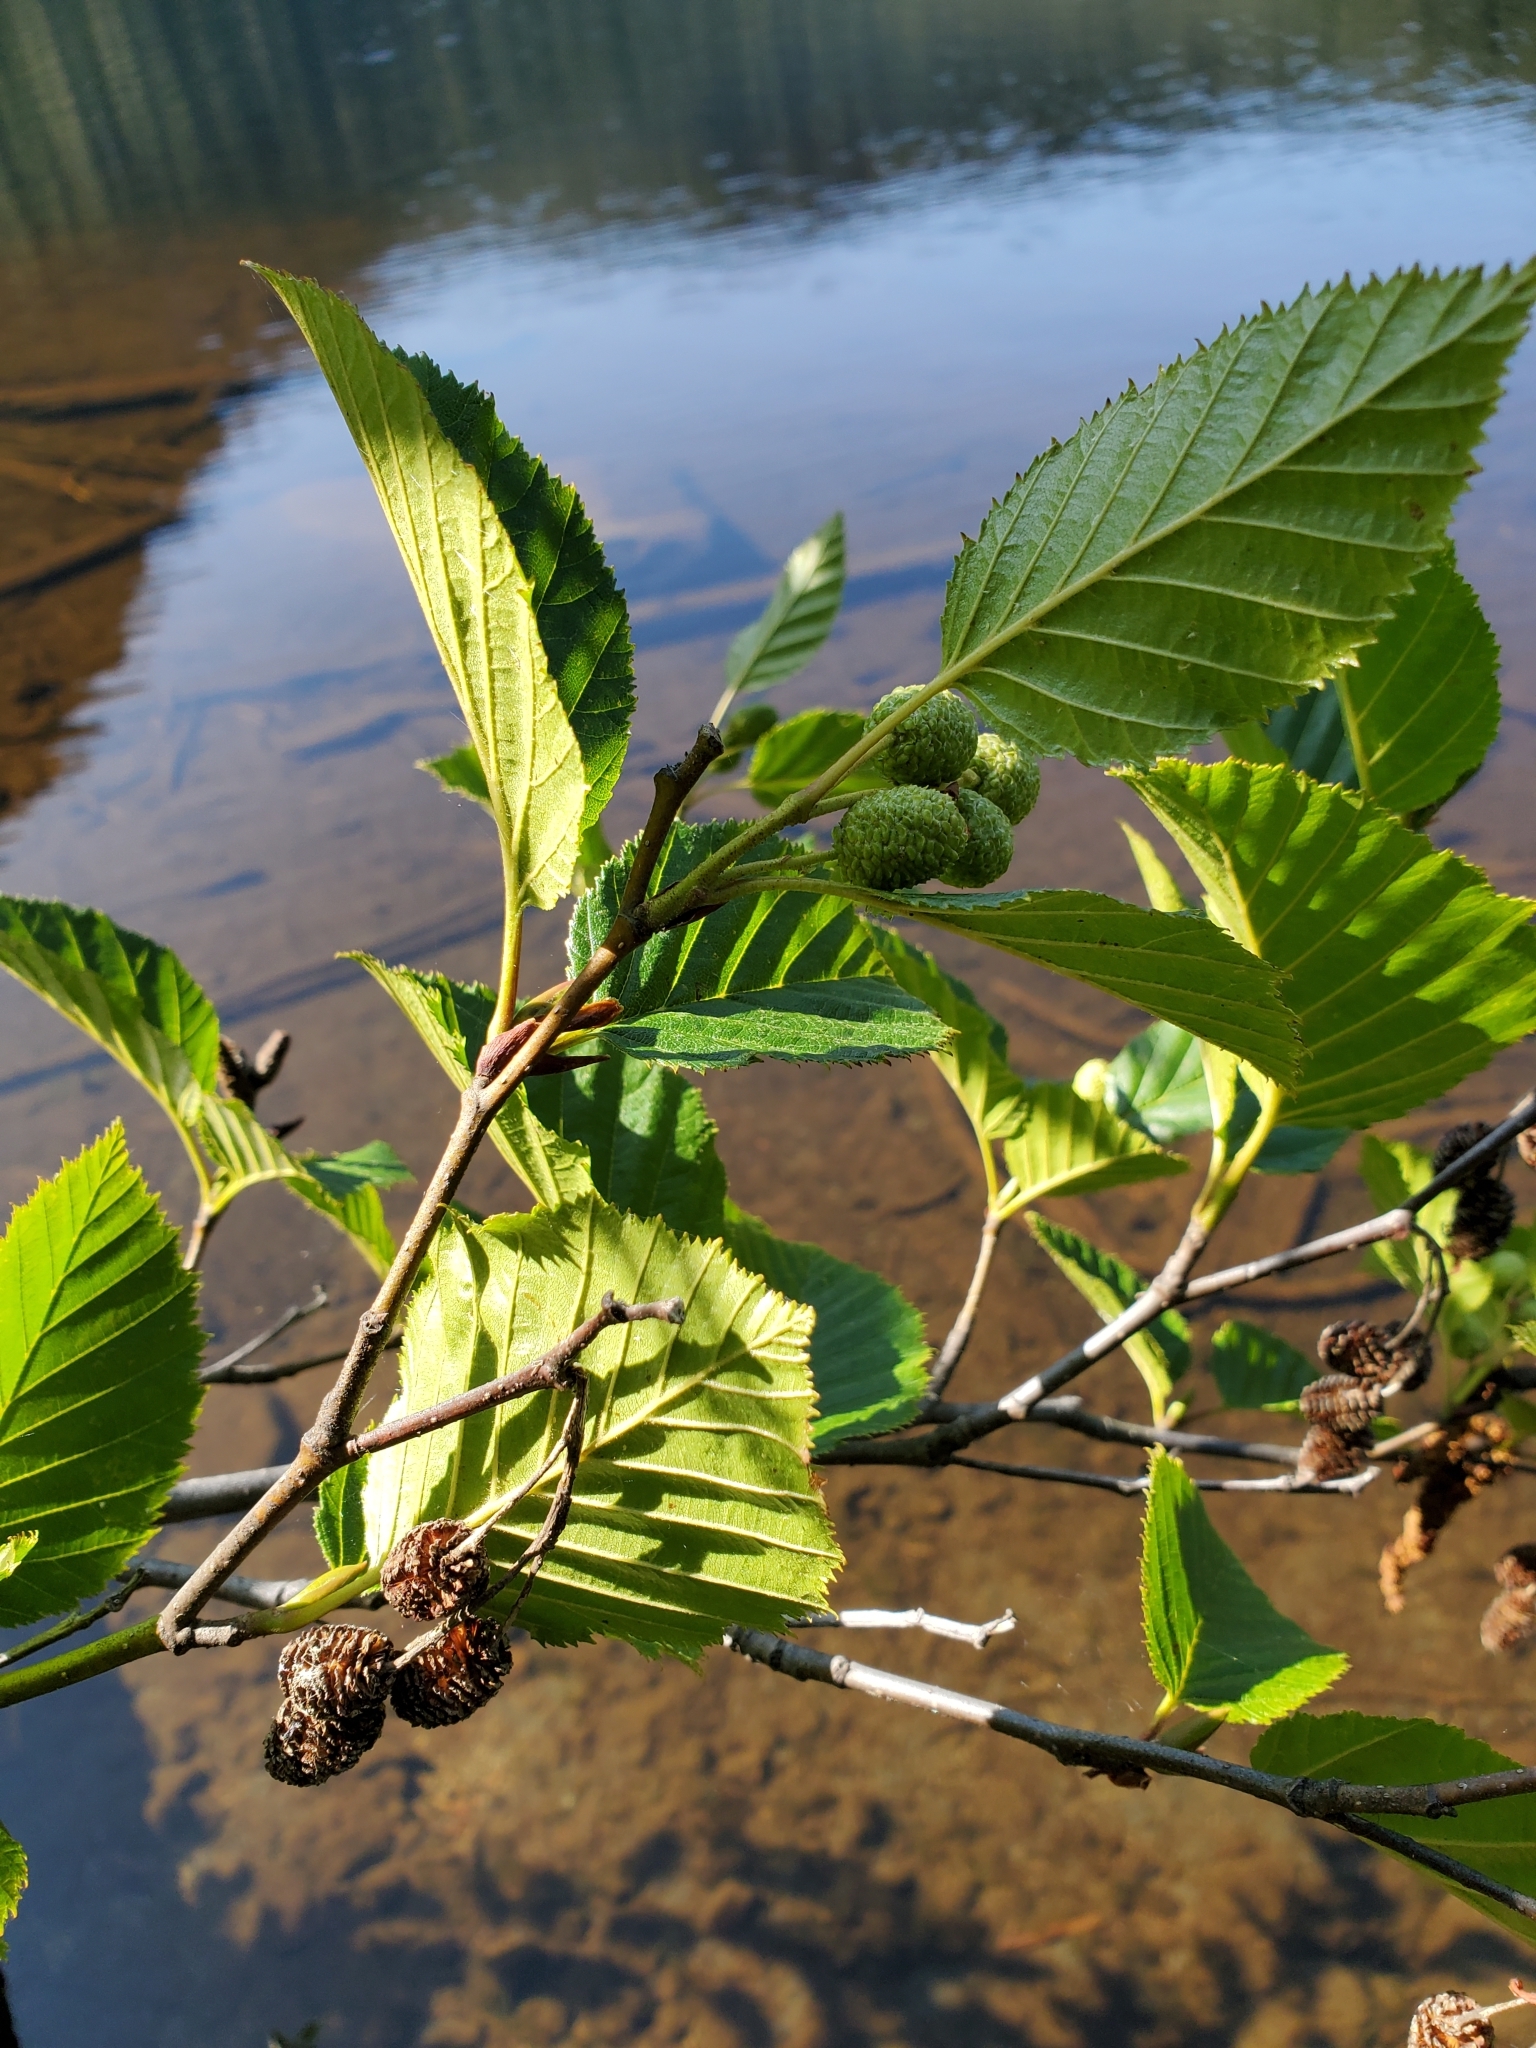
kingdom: Plantae
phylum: Tracheophyta
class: Magnoliopsida
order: Fagales
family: Betulaceae
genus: Alnus
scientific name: Alnus alnobetula
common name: Green alder
